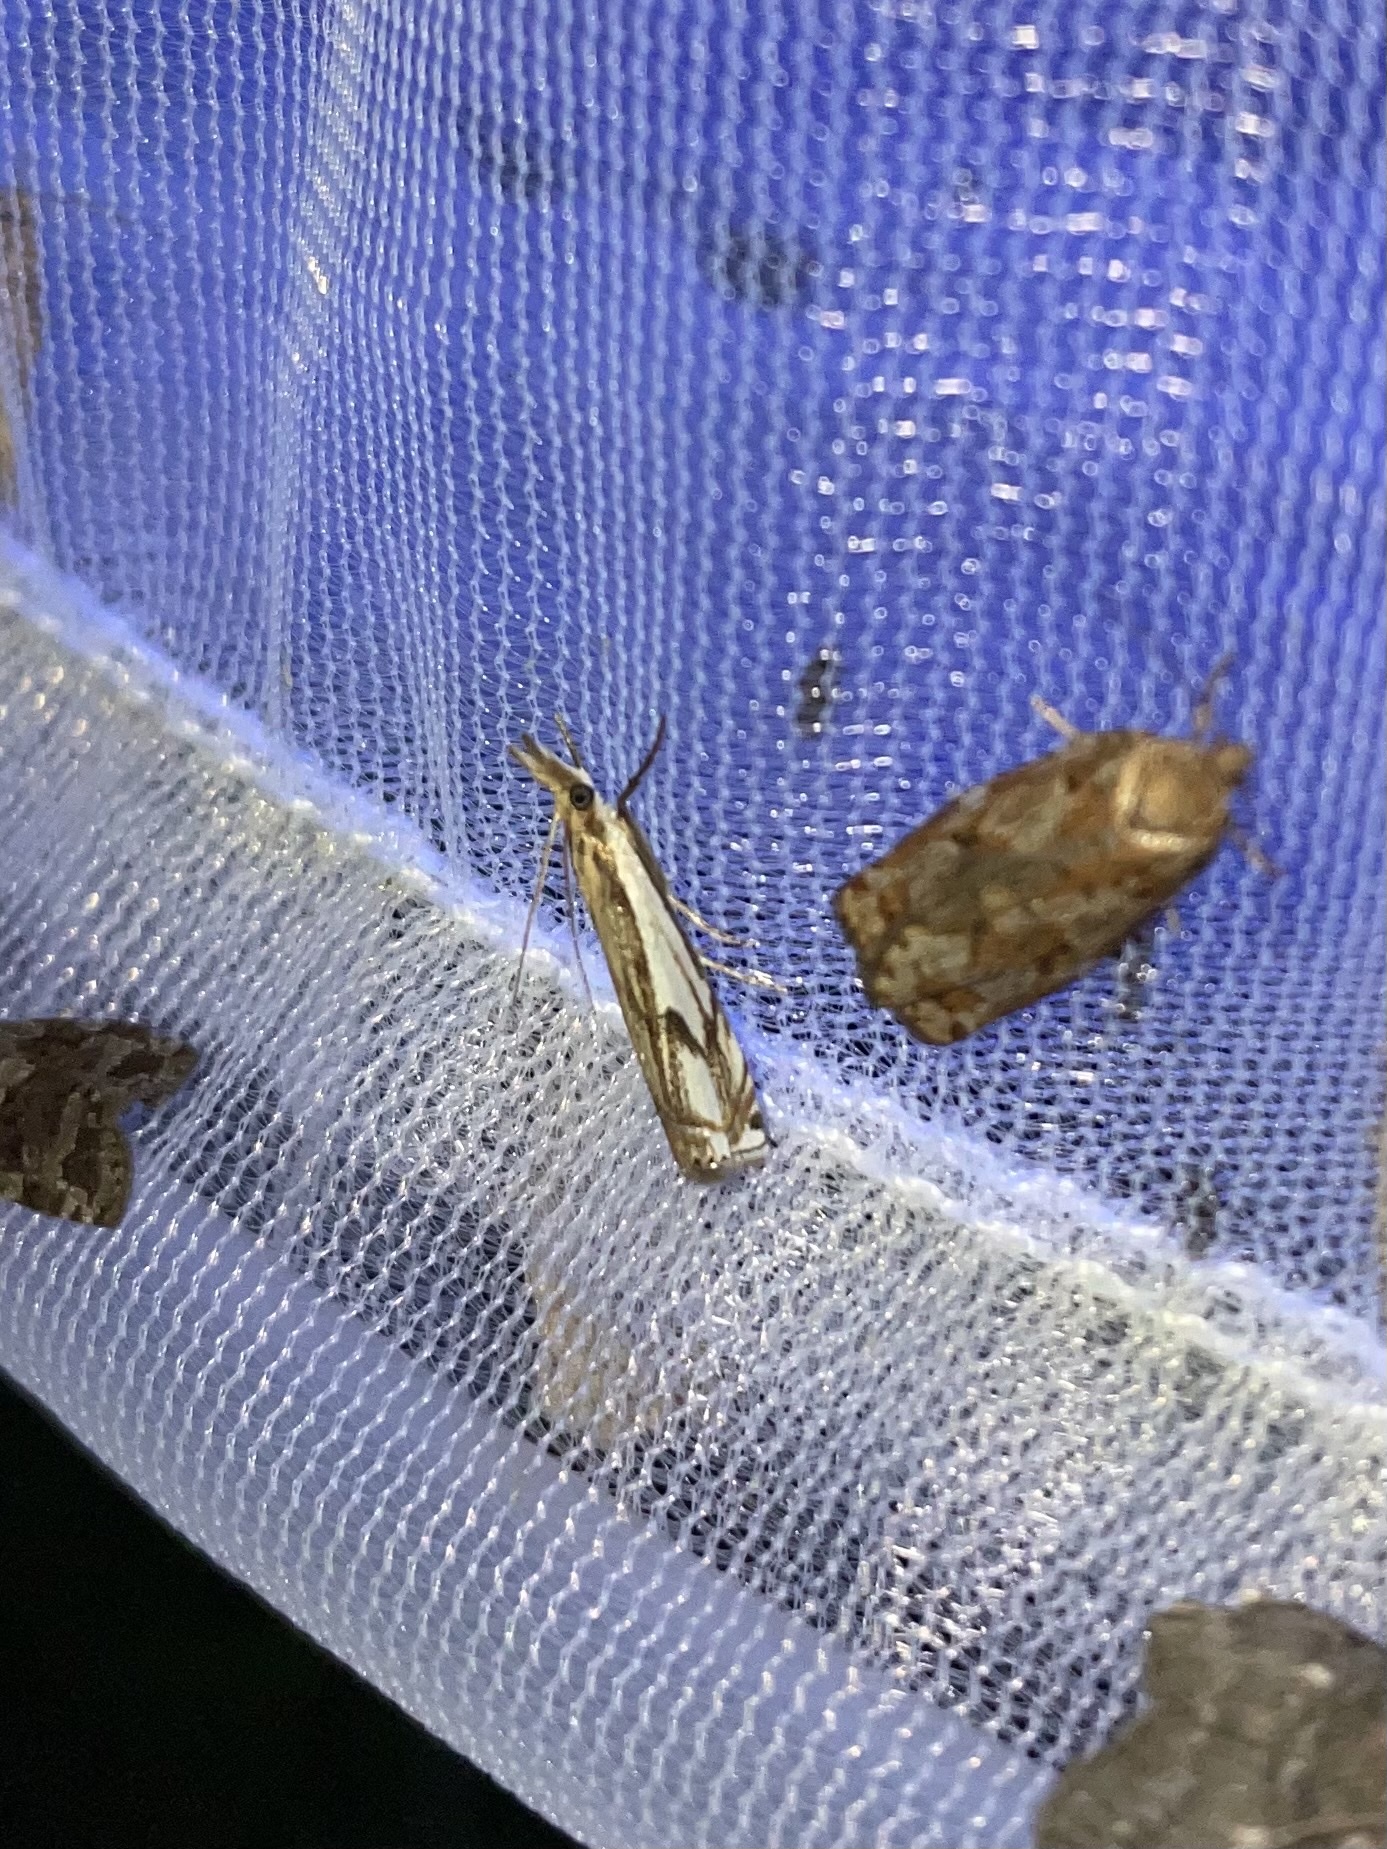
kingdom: Animalia
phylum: Arthropoda
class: Insecta
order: Lepidoptera
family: Crambidae
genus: Crambus
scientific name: Crambus agitatellus
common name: Double-banded grass-veneer
